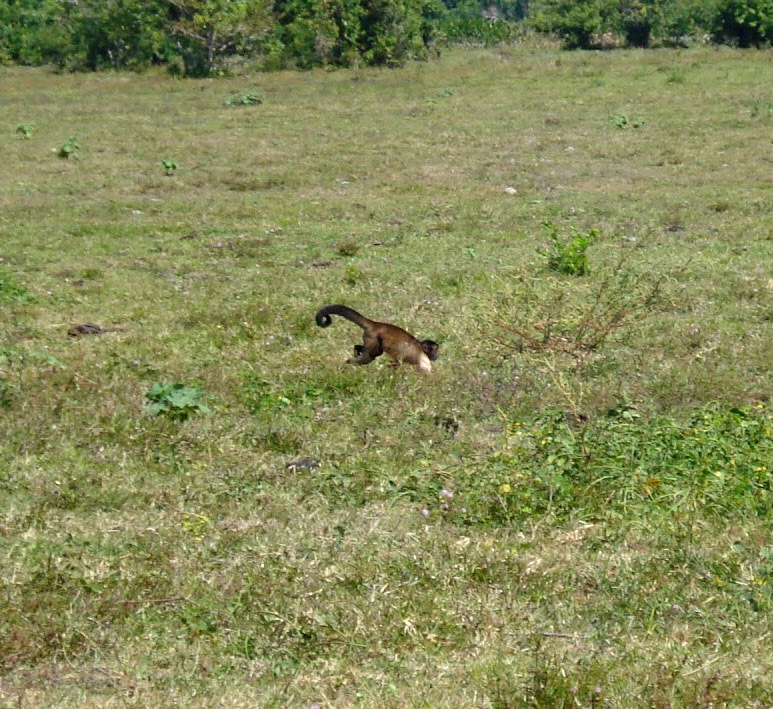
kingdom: Animalia
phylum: Chordata
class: Mammalia
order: Primates
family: Cebidae
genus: Sapajus
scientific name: Sapajus apella
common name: Tufted capuchin
